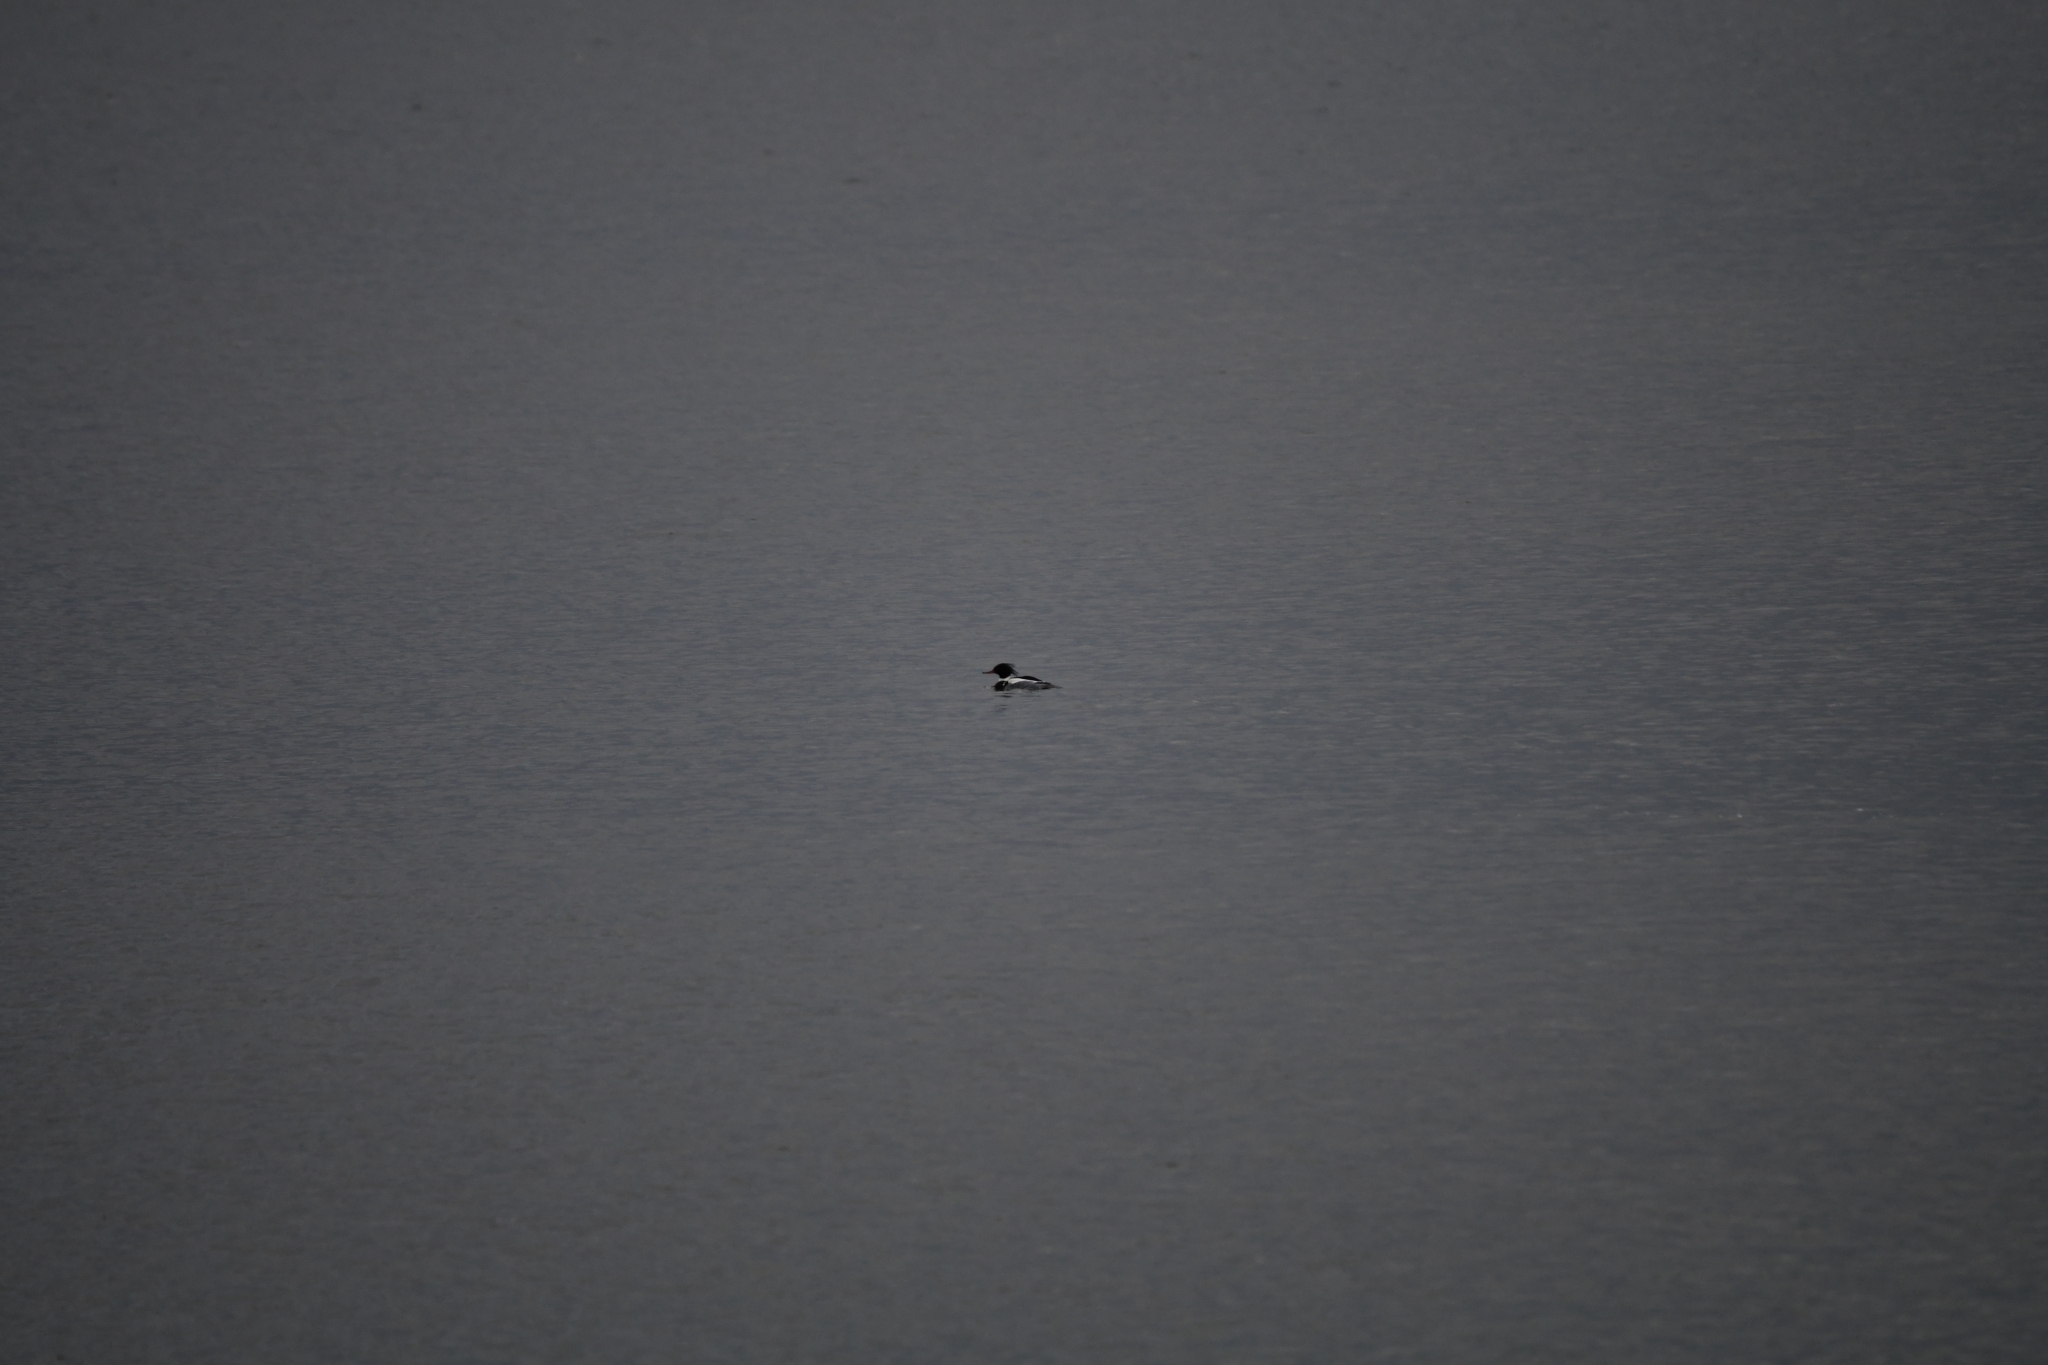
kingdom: Animalia
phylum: Chordata
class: Aves
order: Anseriformes
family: Anatidae
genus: Mergus
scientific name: Mergus serrator
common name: Red-breasted merganser
